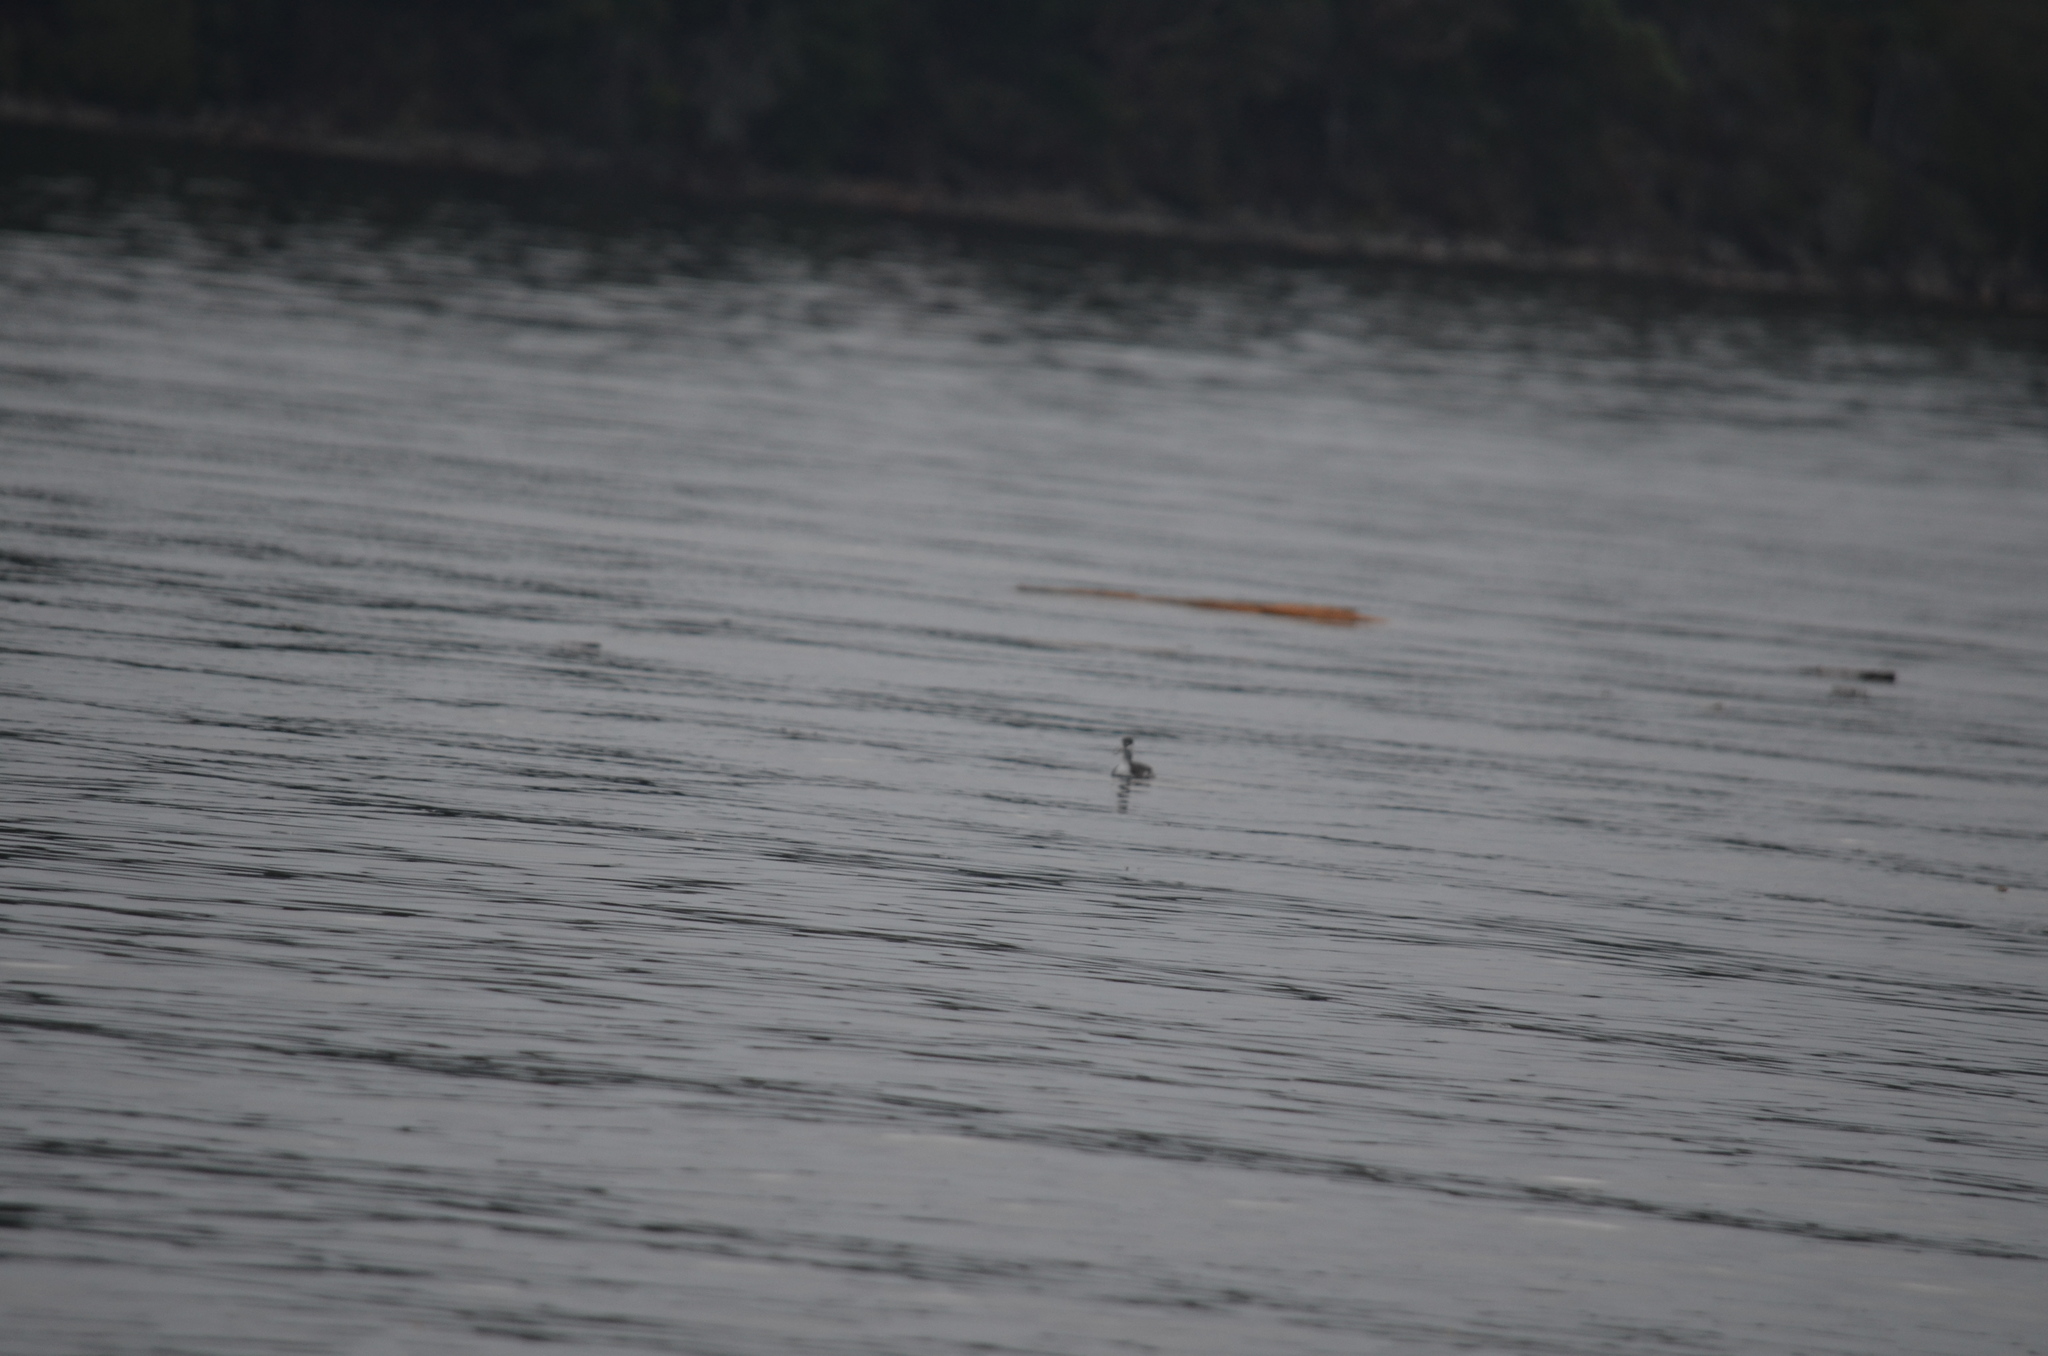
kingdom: Animalia
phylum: Chordata
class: Aves
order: Podicipediformes
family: Podicipedidae
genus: Podiceps
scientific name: Podiceps auritus
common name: Horned grebe
